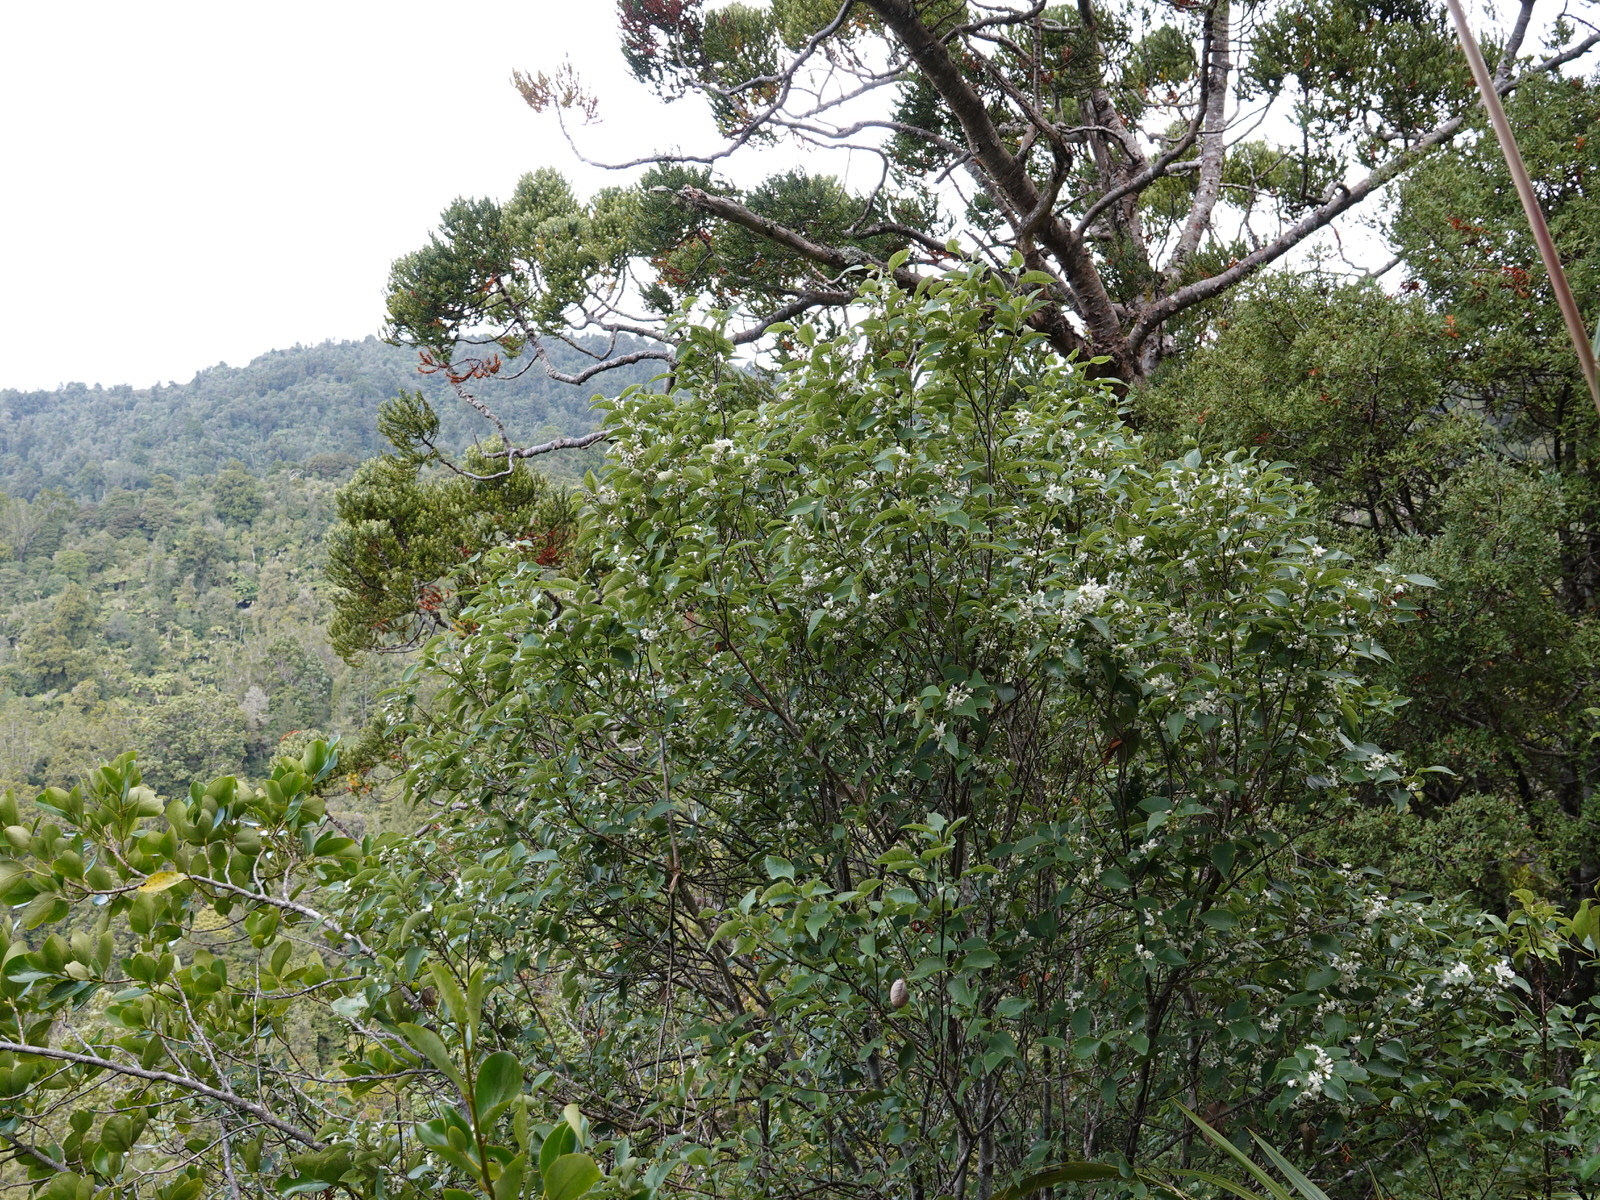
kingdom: Plantae
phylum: Tracheophyta
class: Magnoliopsida
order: Malvales
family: Malvaceae
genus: Hoheria
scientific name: Hoheria populnea
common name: Lacebark
